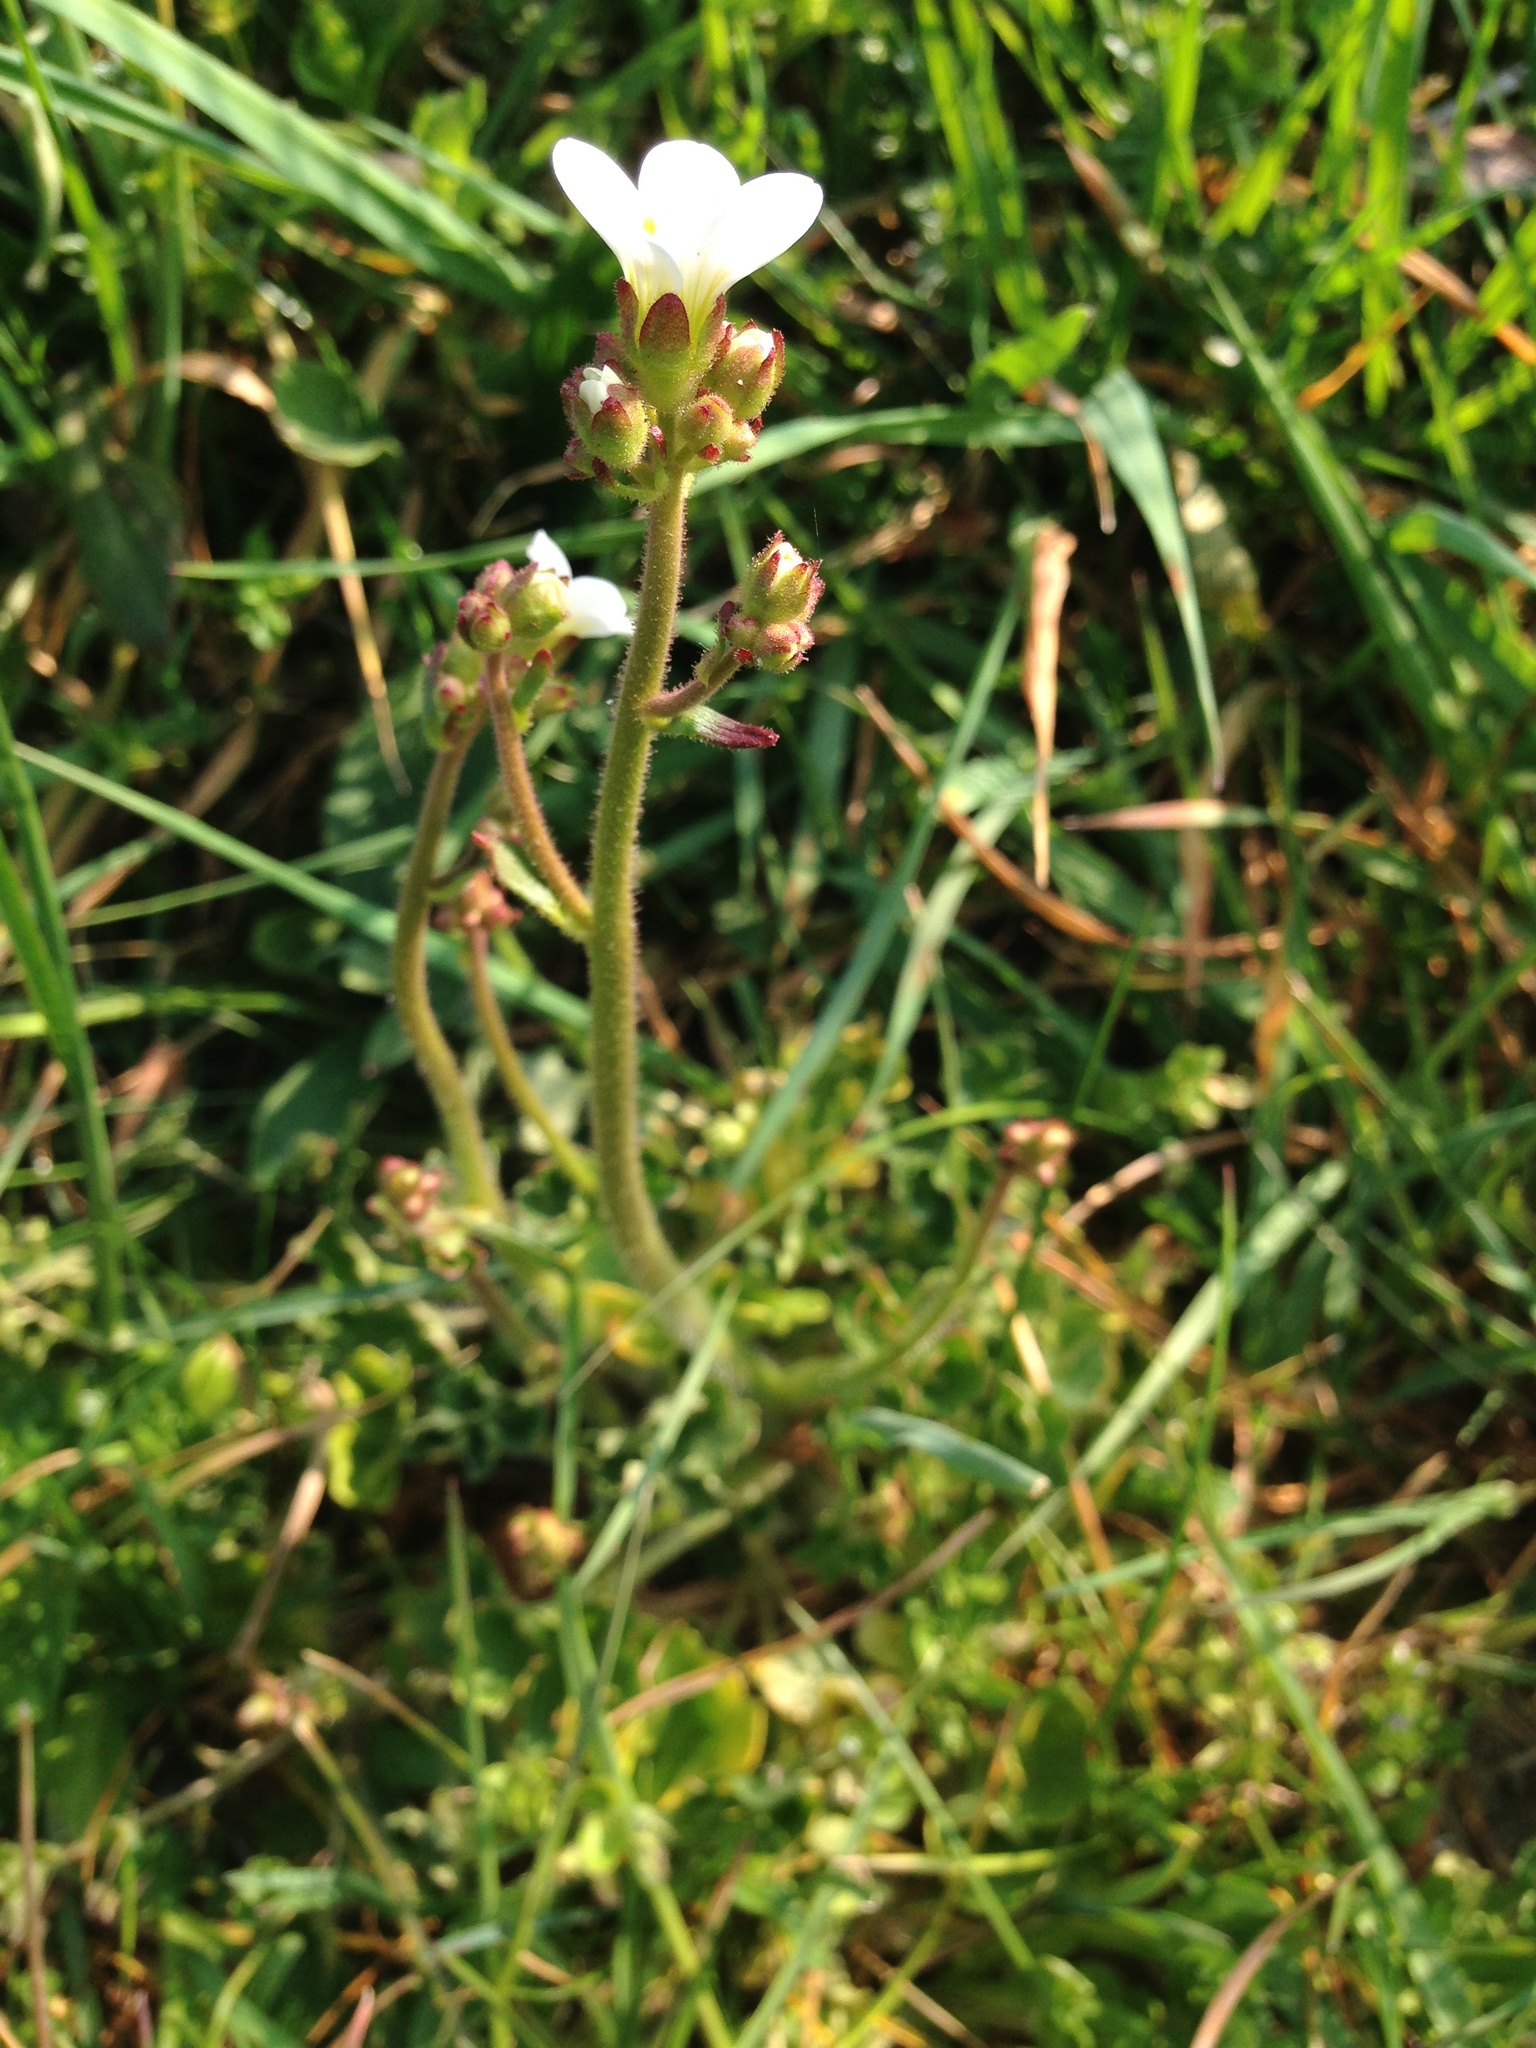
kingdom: Plantae
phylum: Tracheophyta
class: Magnoliopsida
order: Saxifragales
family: Saxifragaceae
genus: Saxifraga
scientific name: Saxifraga granulata
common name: Meadow saxifrage
